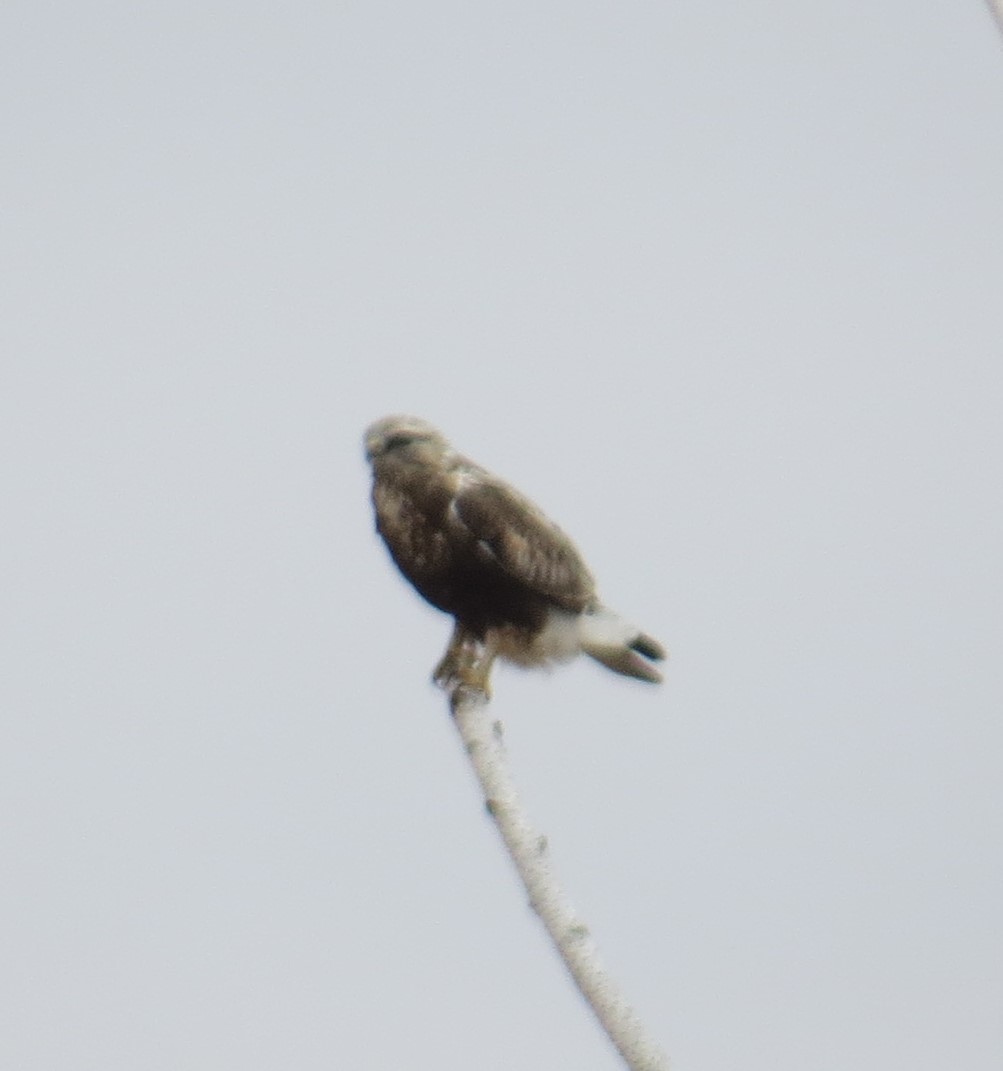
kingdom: Animalia
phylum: Chordata
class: Aves
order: Accipitriformes
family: Accipitridae
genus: Buteo
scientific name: Buteo lagopus
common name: Rough-legged buzzard
